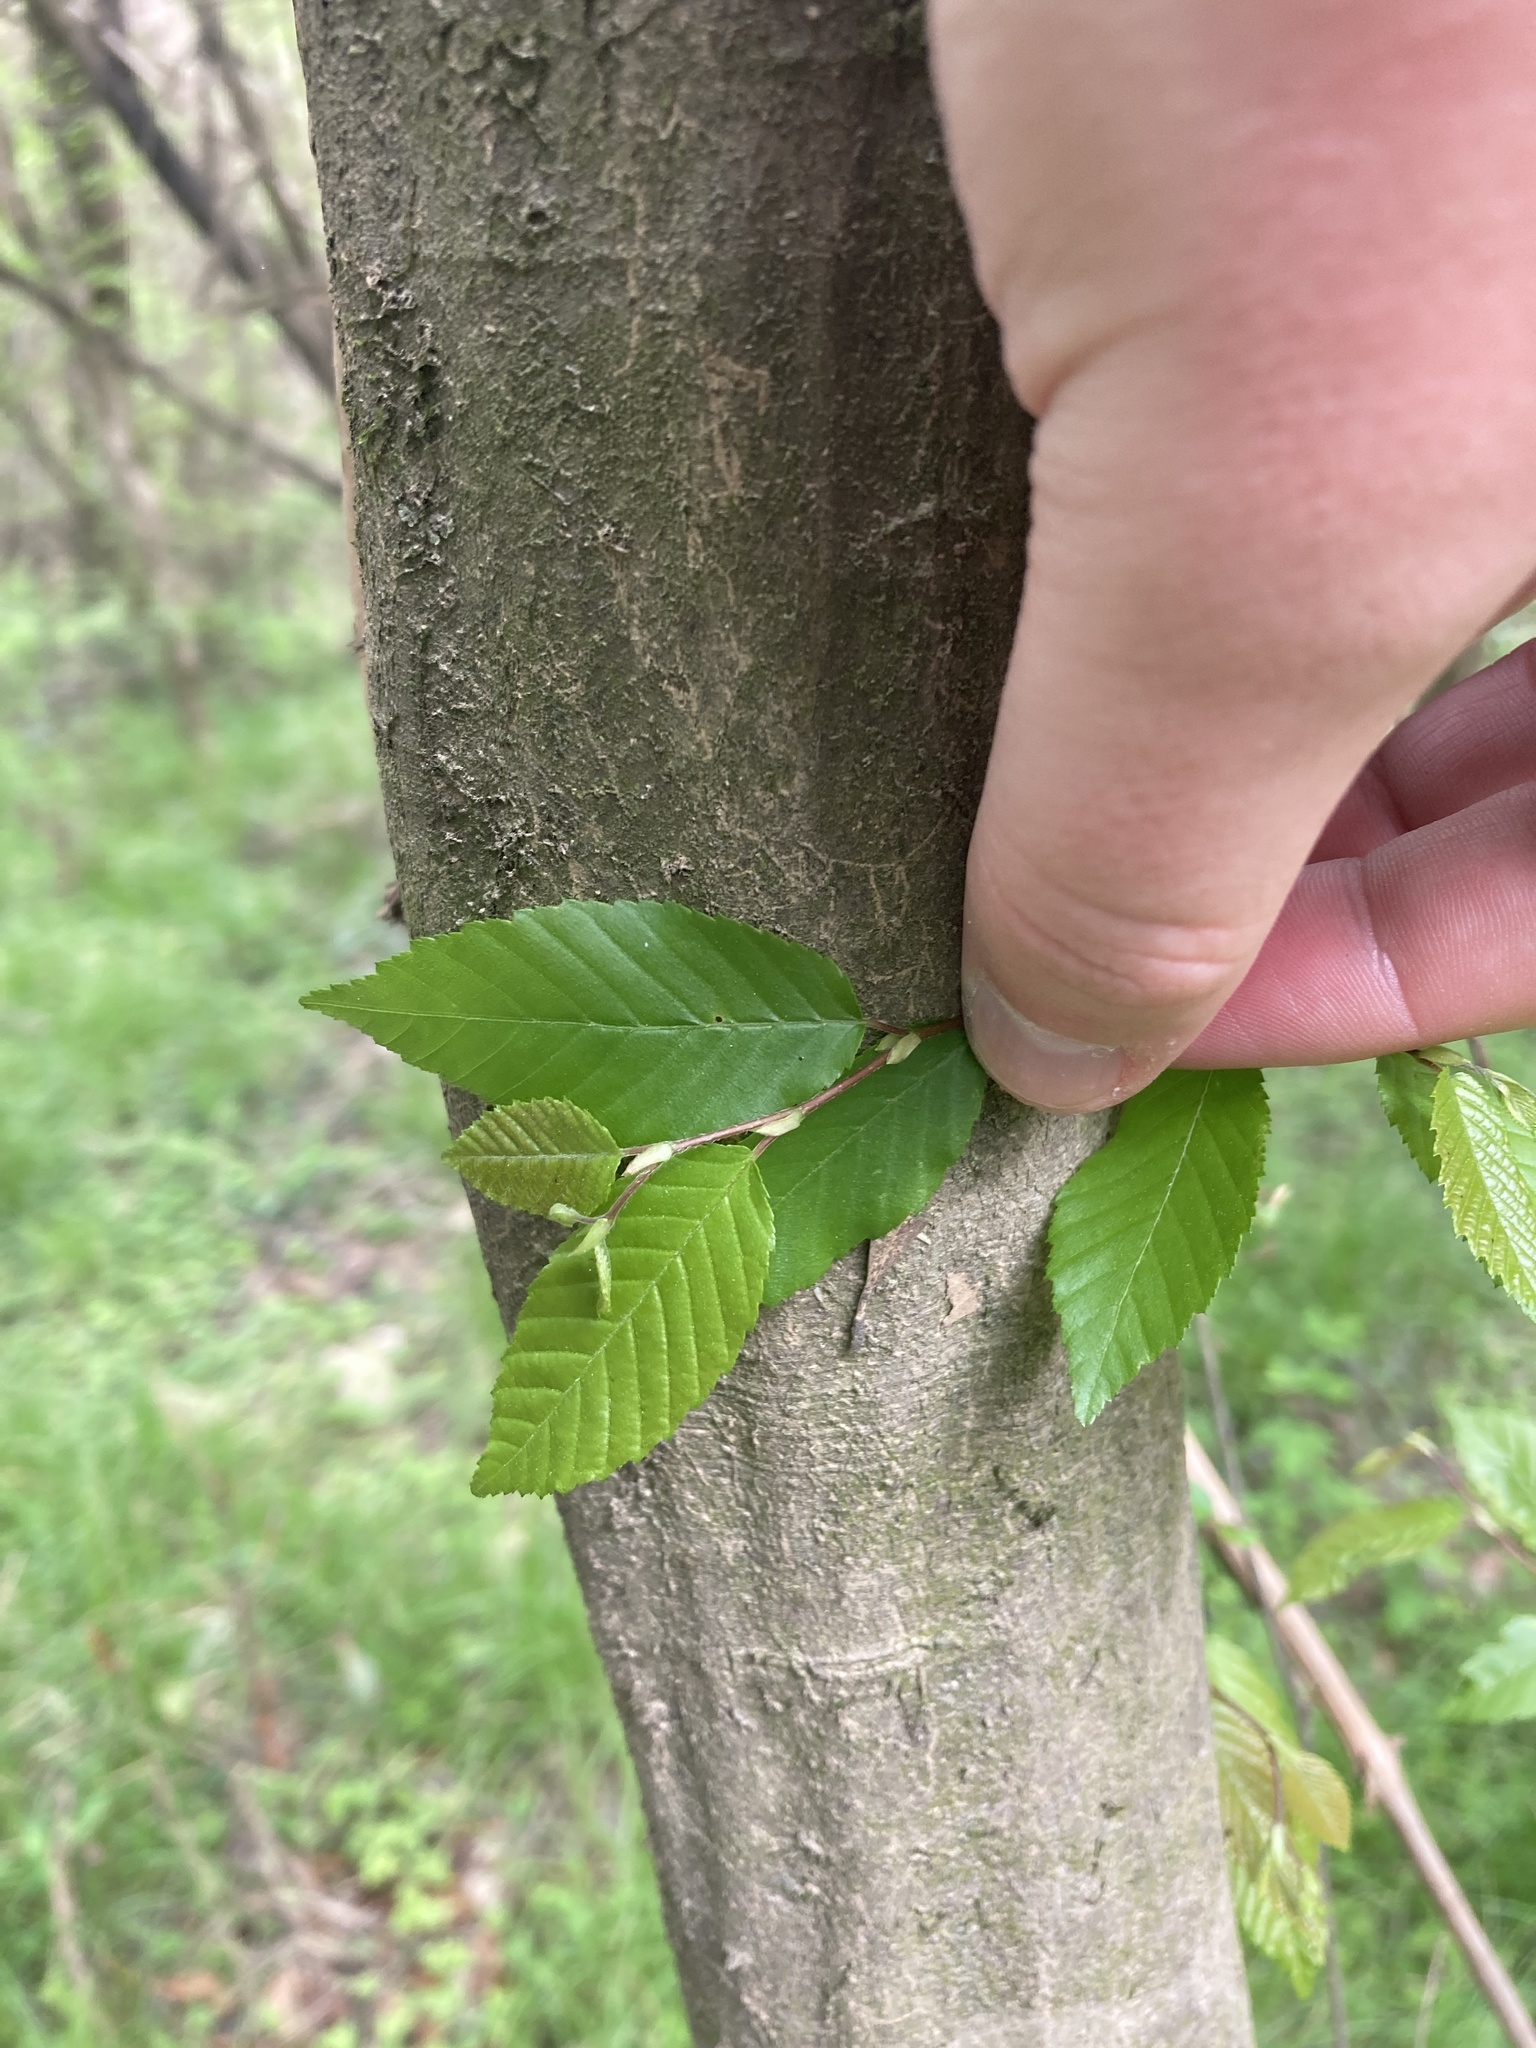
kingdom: Plantae
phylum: Tracheophyta
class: Magnoliopsida
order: Fagales
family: Betulaceae
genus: Carpinus
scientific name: Carpinus caroliniana
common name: American hornbeam
